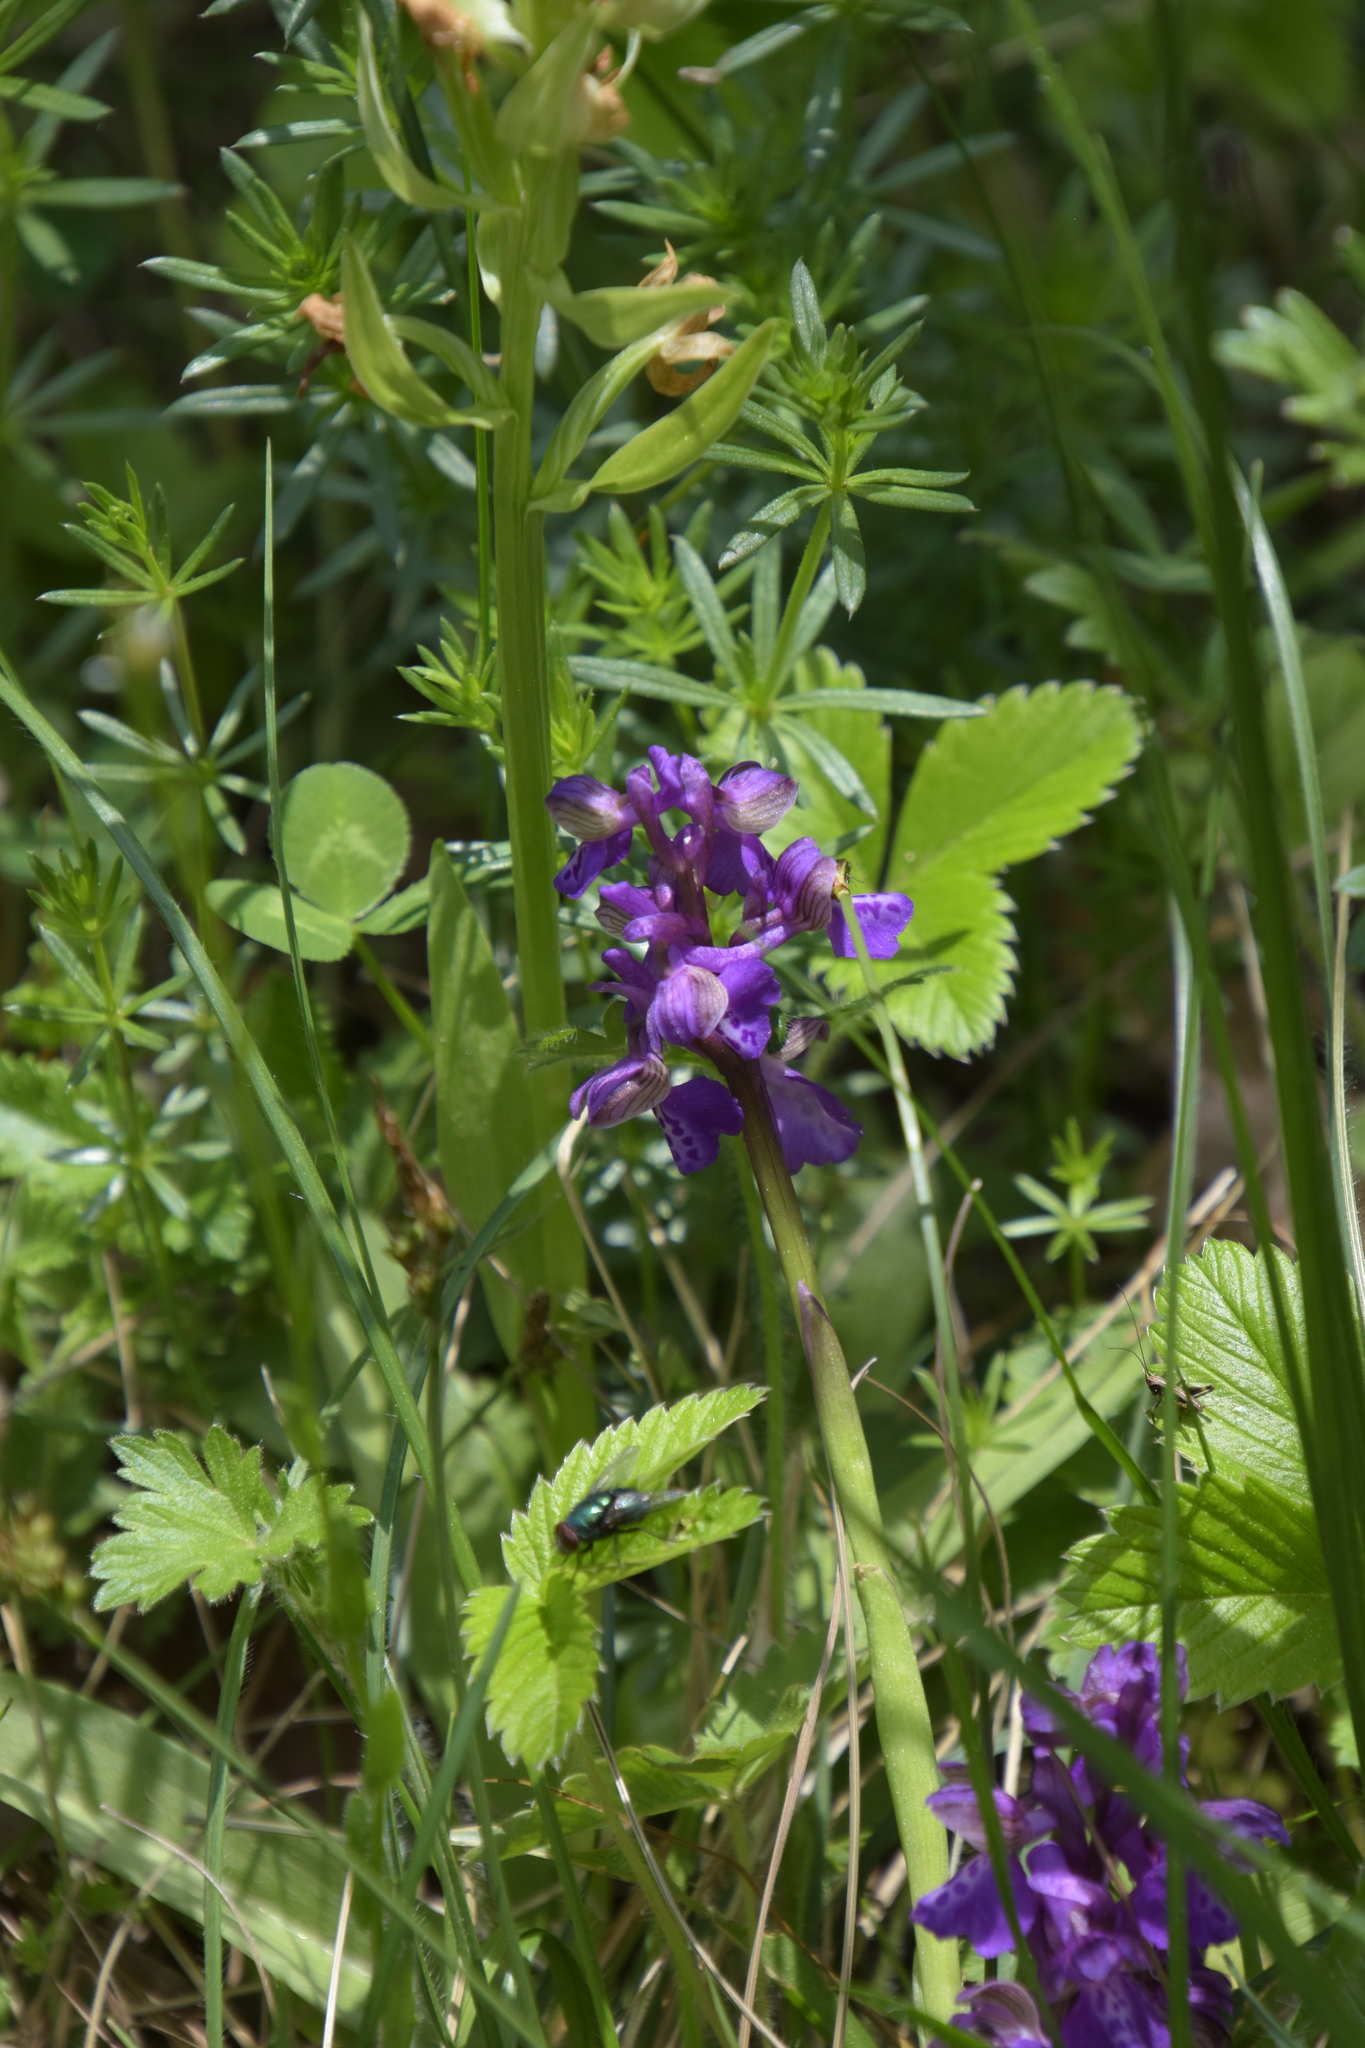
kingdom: Plantae
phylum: Tracheophyta
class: Liliopsida
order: Asparagales
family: Orchidaceae
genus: Anacamptis
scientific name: Anacamptis morio
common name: Green-winged orchid
